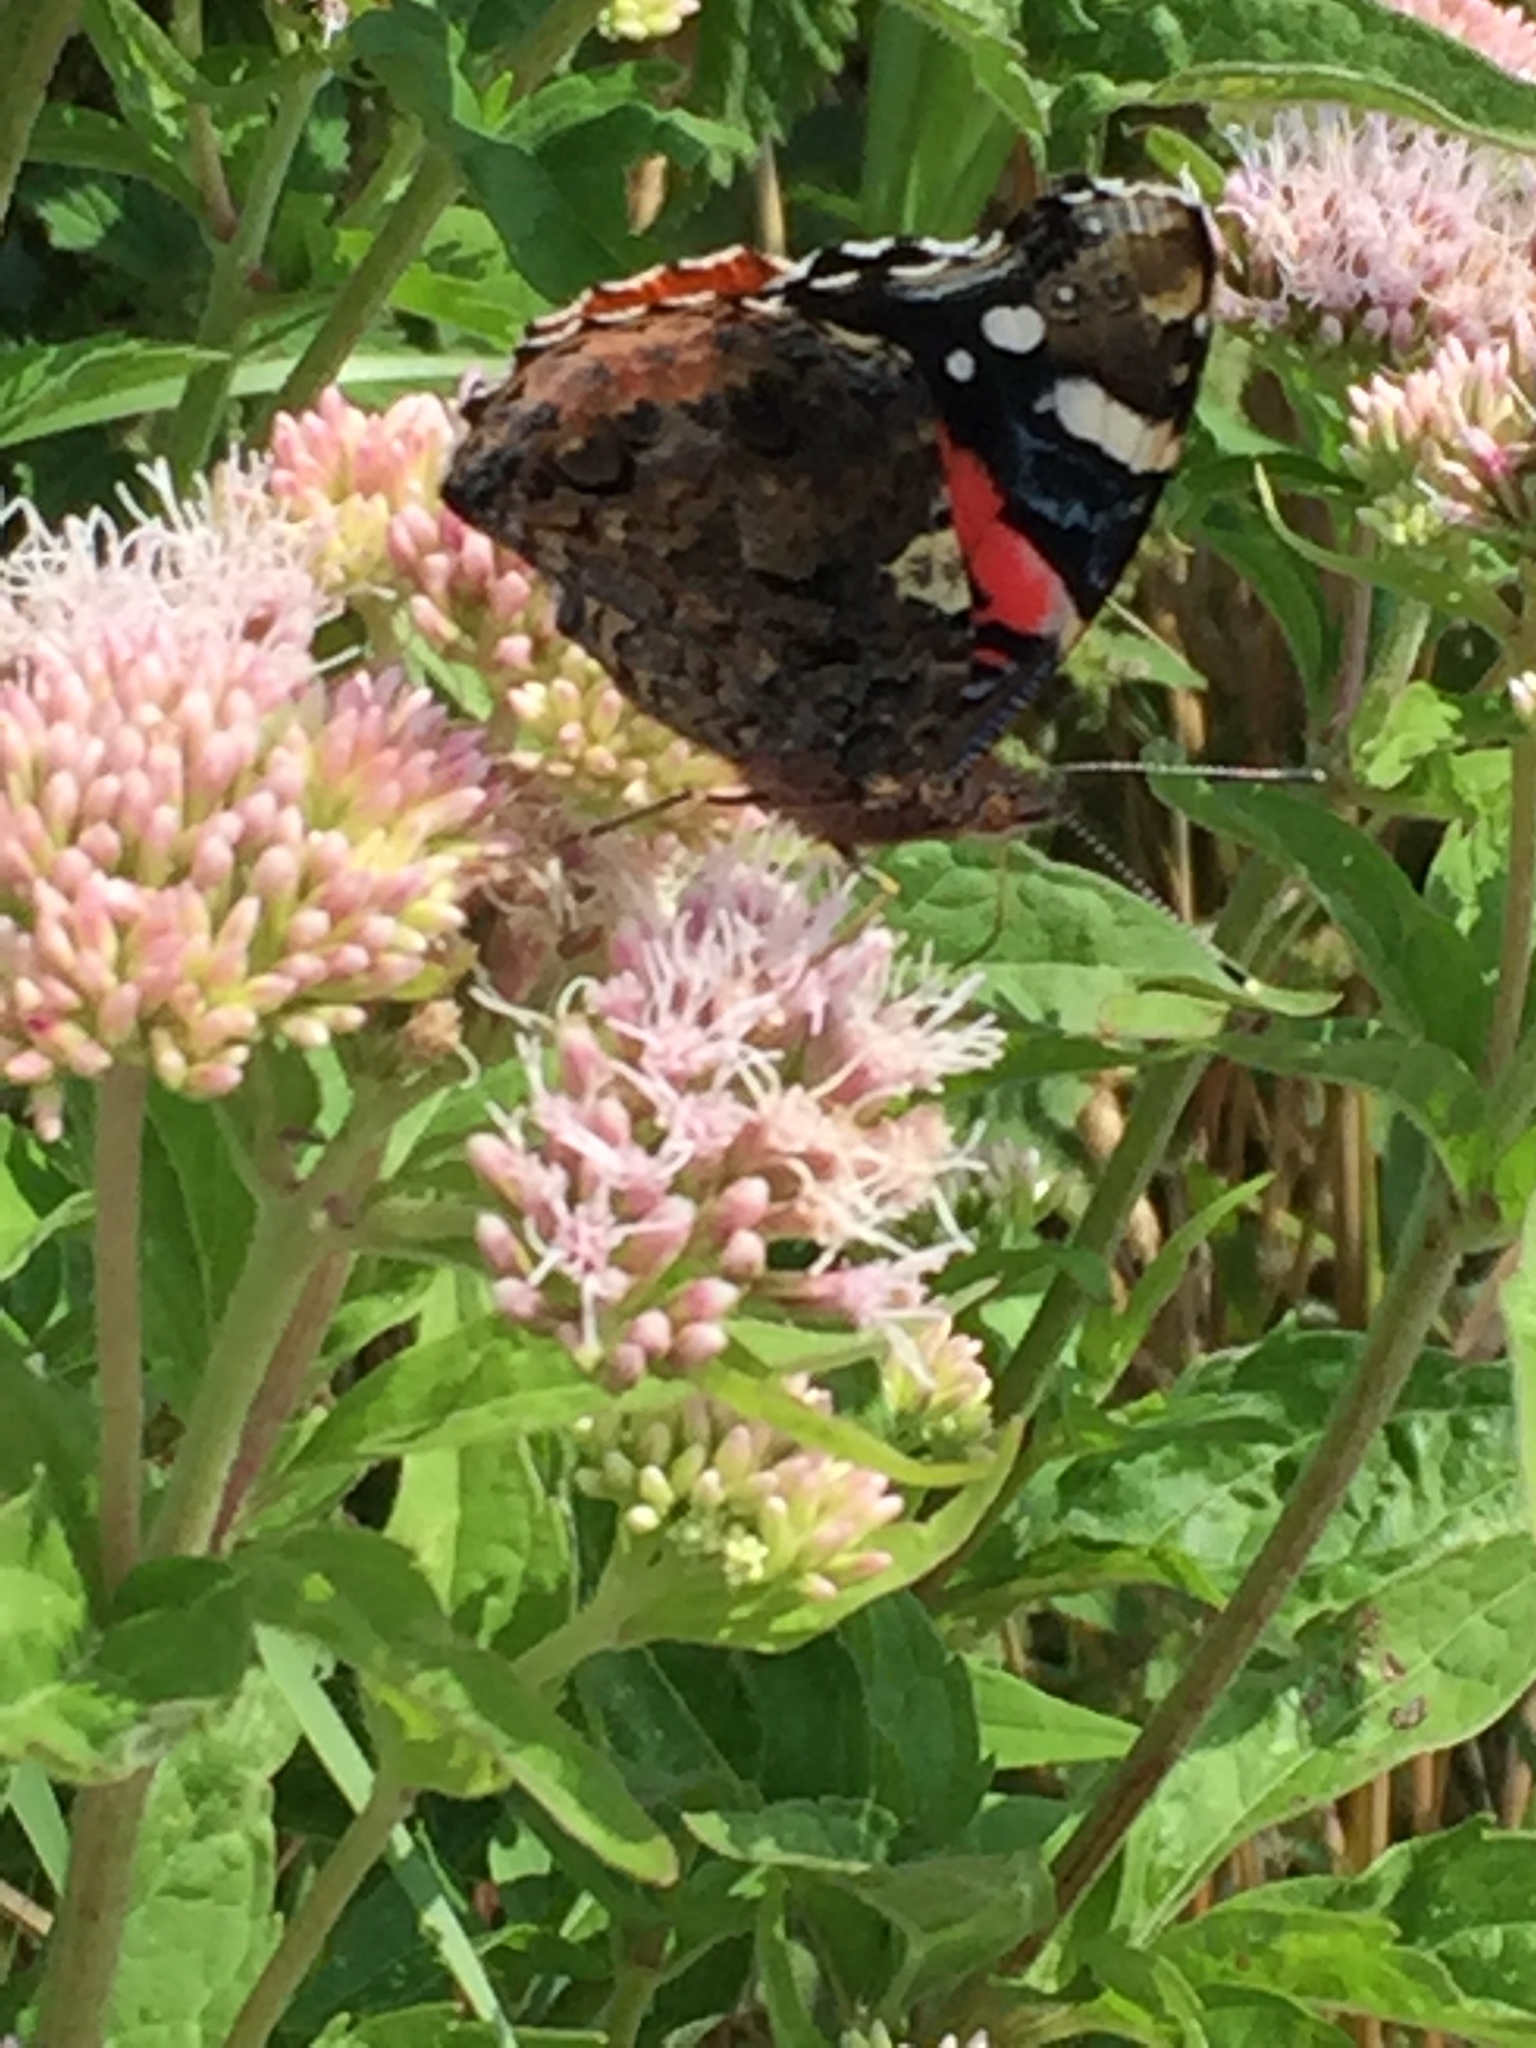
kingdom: Animalia
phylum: Arthropoda
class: Insecta
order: Lepidoptera
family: Nymphalidae
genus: Vanessa
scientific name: Vanessa atalanta
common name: Red admiral
